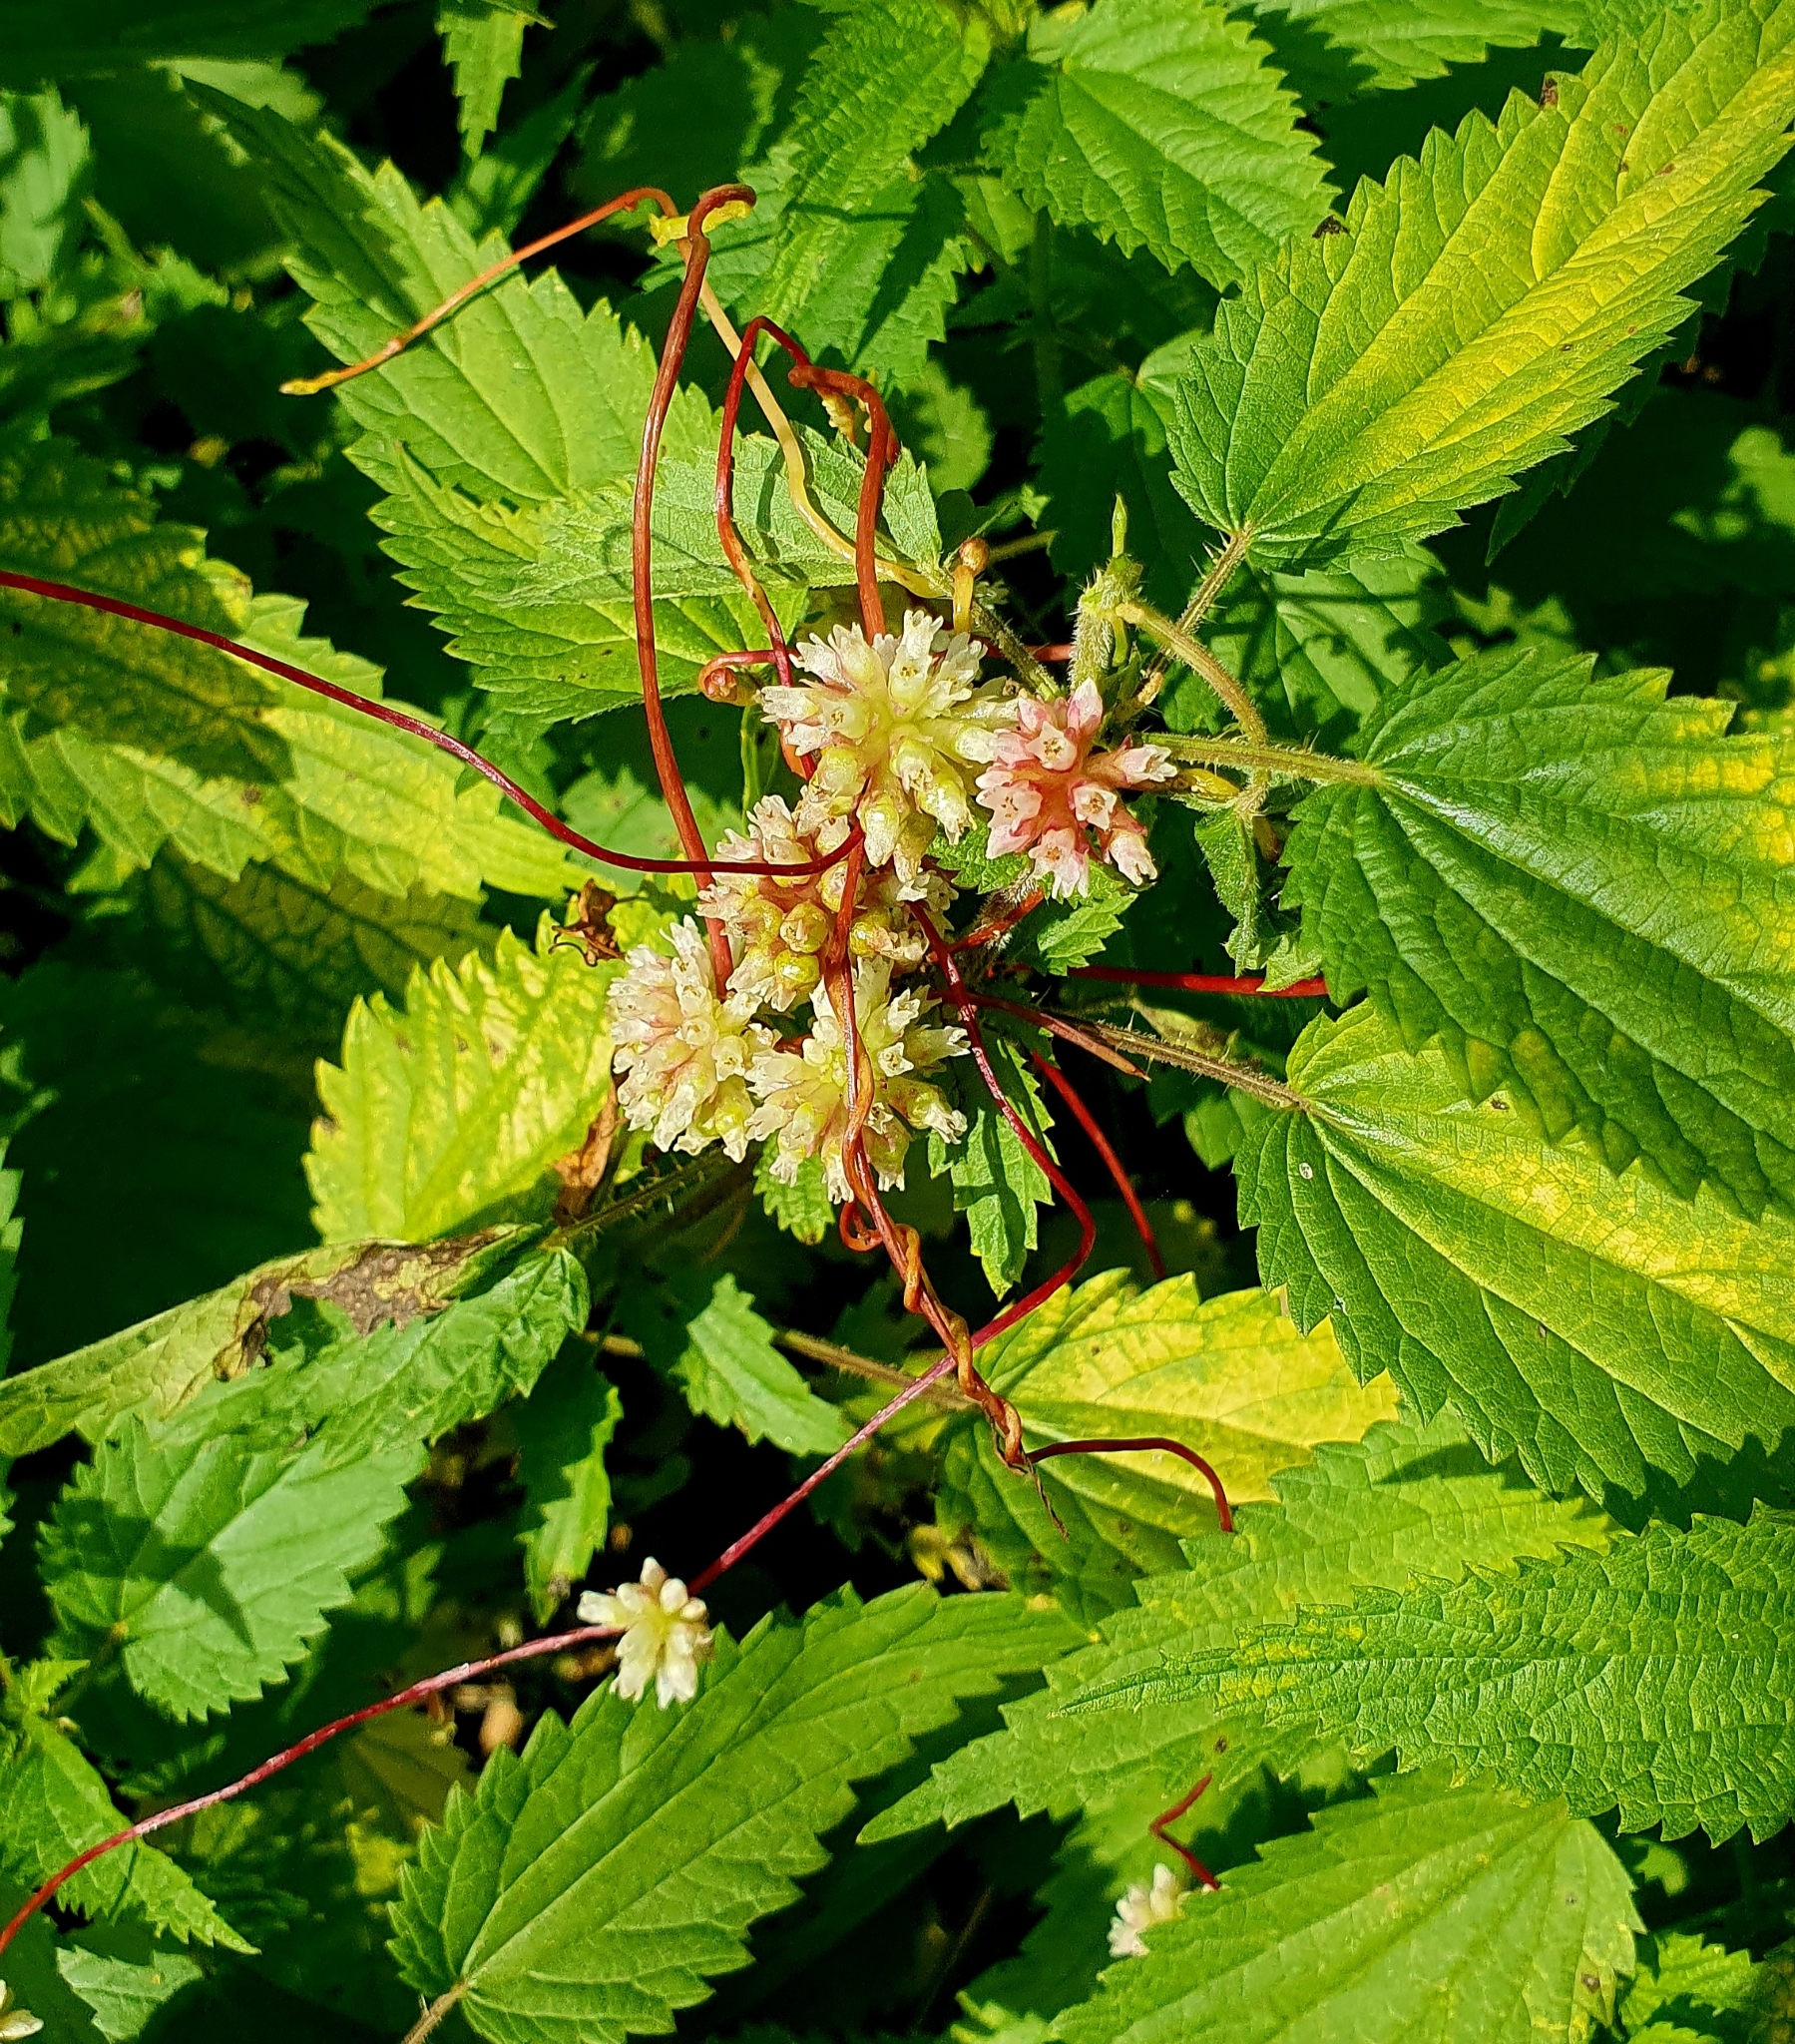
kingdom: Plantae
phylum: Tracheophyta
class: Magnoliopsida
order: Solanales
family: Convolvulaceae
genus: Cuscuta
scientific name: Cuscuta europaea
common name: Greater dodder
